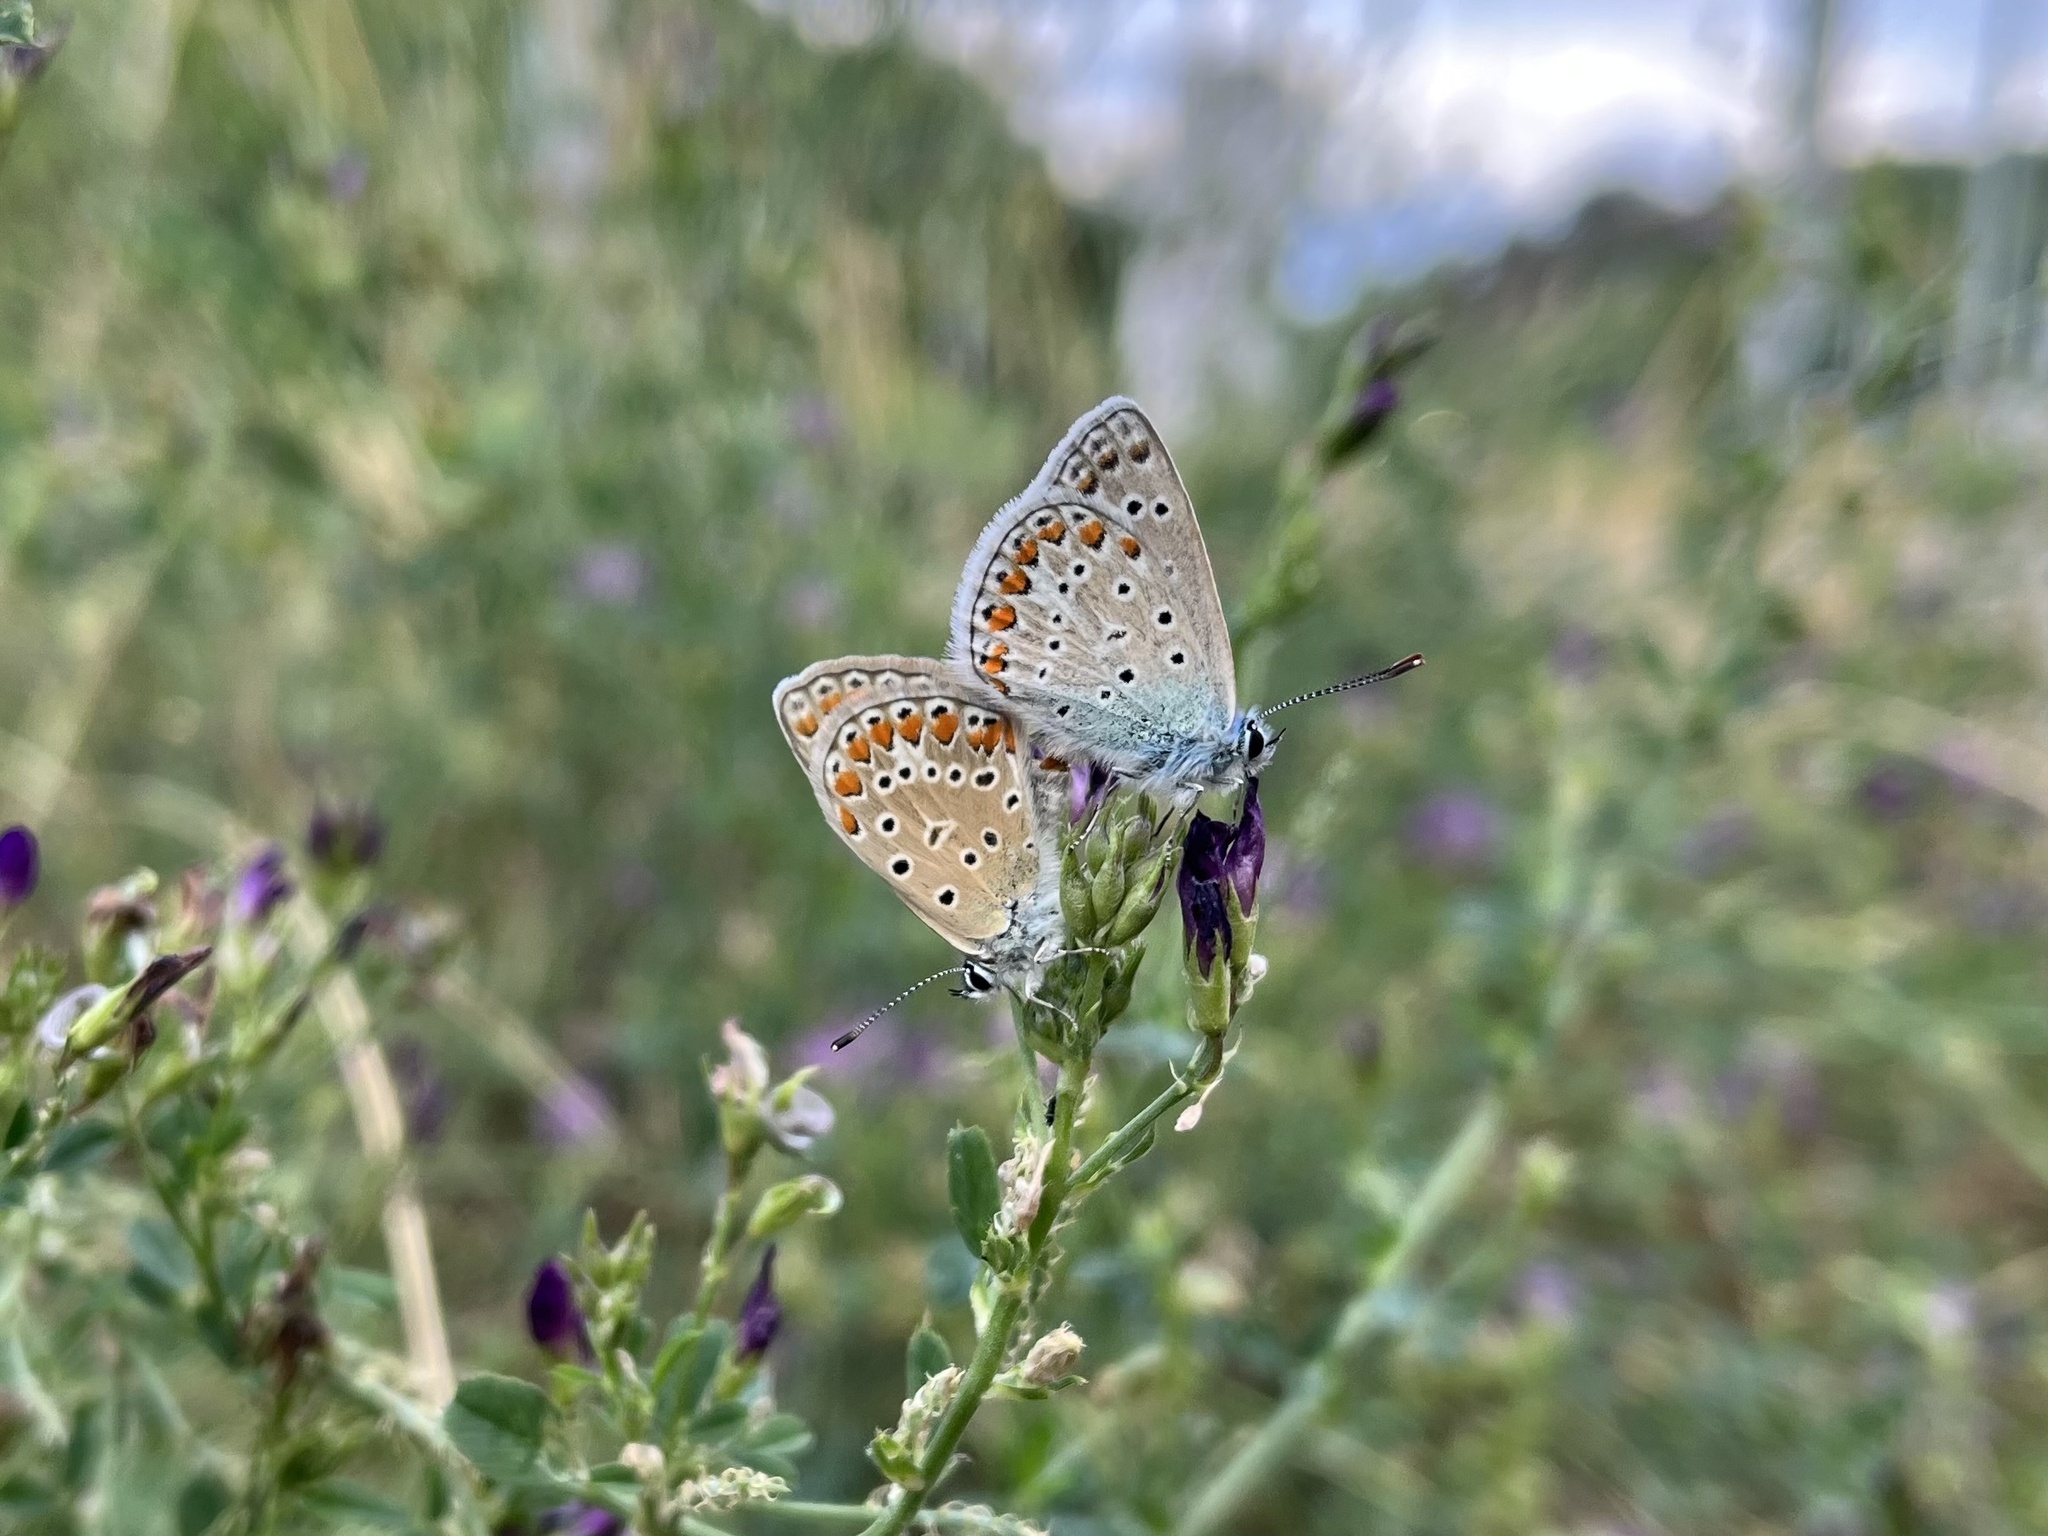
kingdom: Animalia
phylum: Arthropoda
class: Insecta
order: Lepidoptera
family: Lycaenidae
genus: Polyommatus
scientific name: Polyommatus icarus
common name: Common blue
